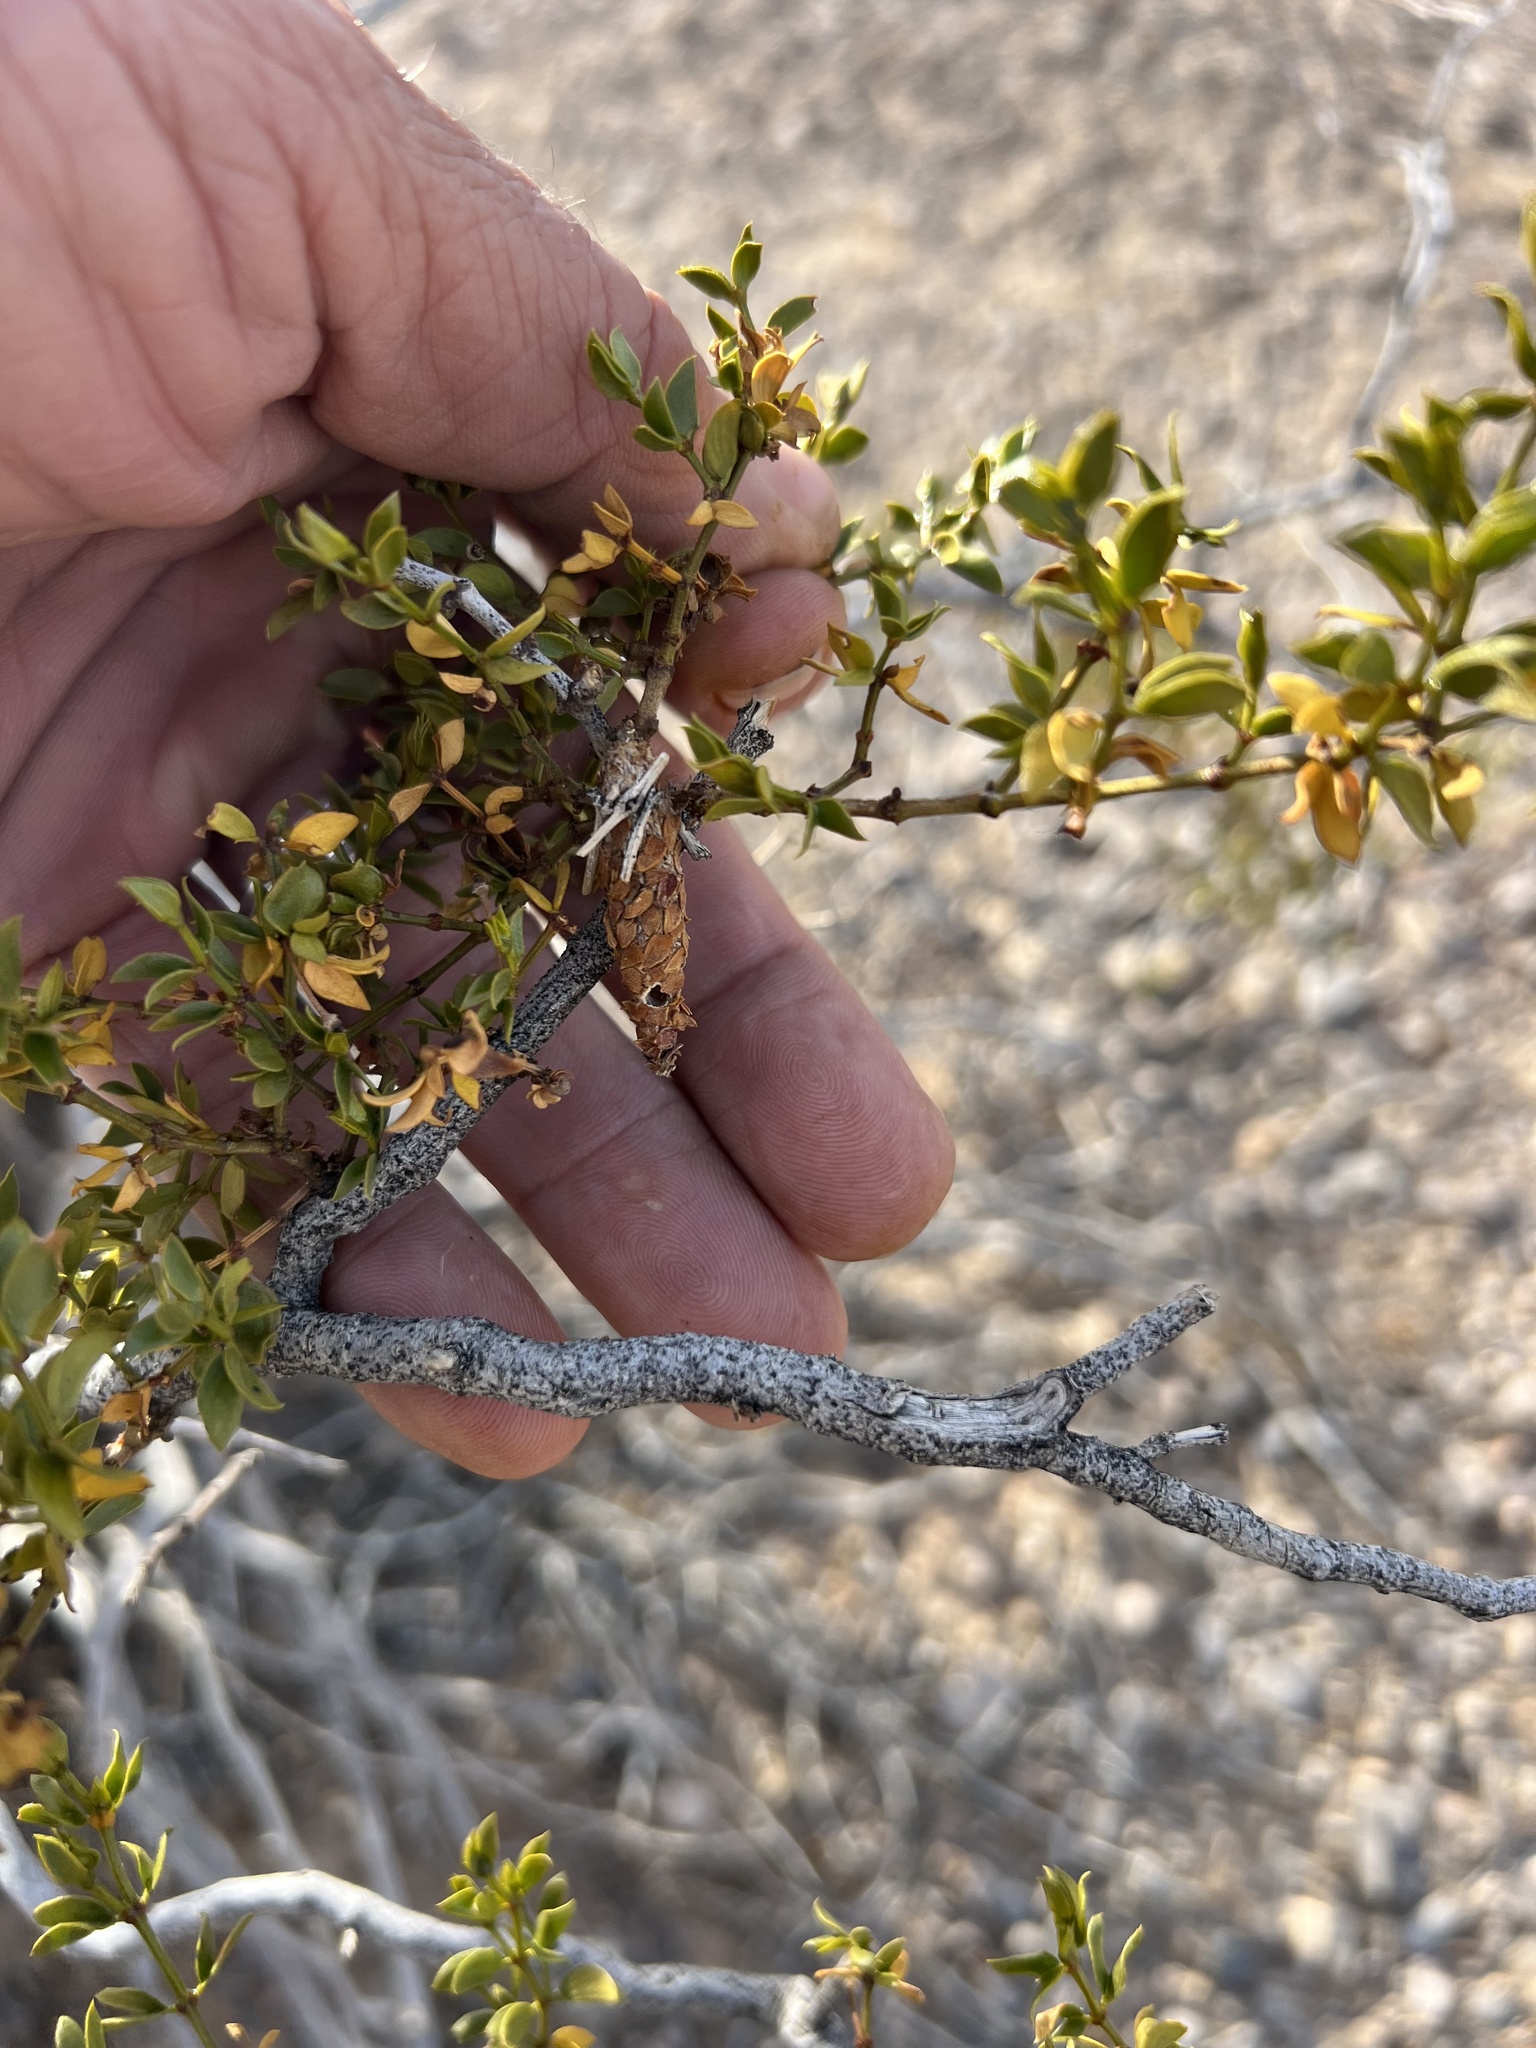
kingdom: Animalia
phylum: Arthropoda
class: Insecta
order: Lepidoptera
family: Psychidae
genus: Thyridopteryx
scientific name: Thyridopteryx meadii
